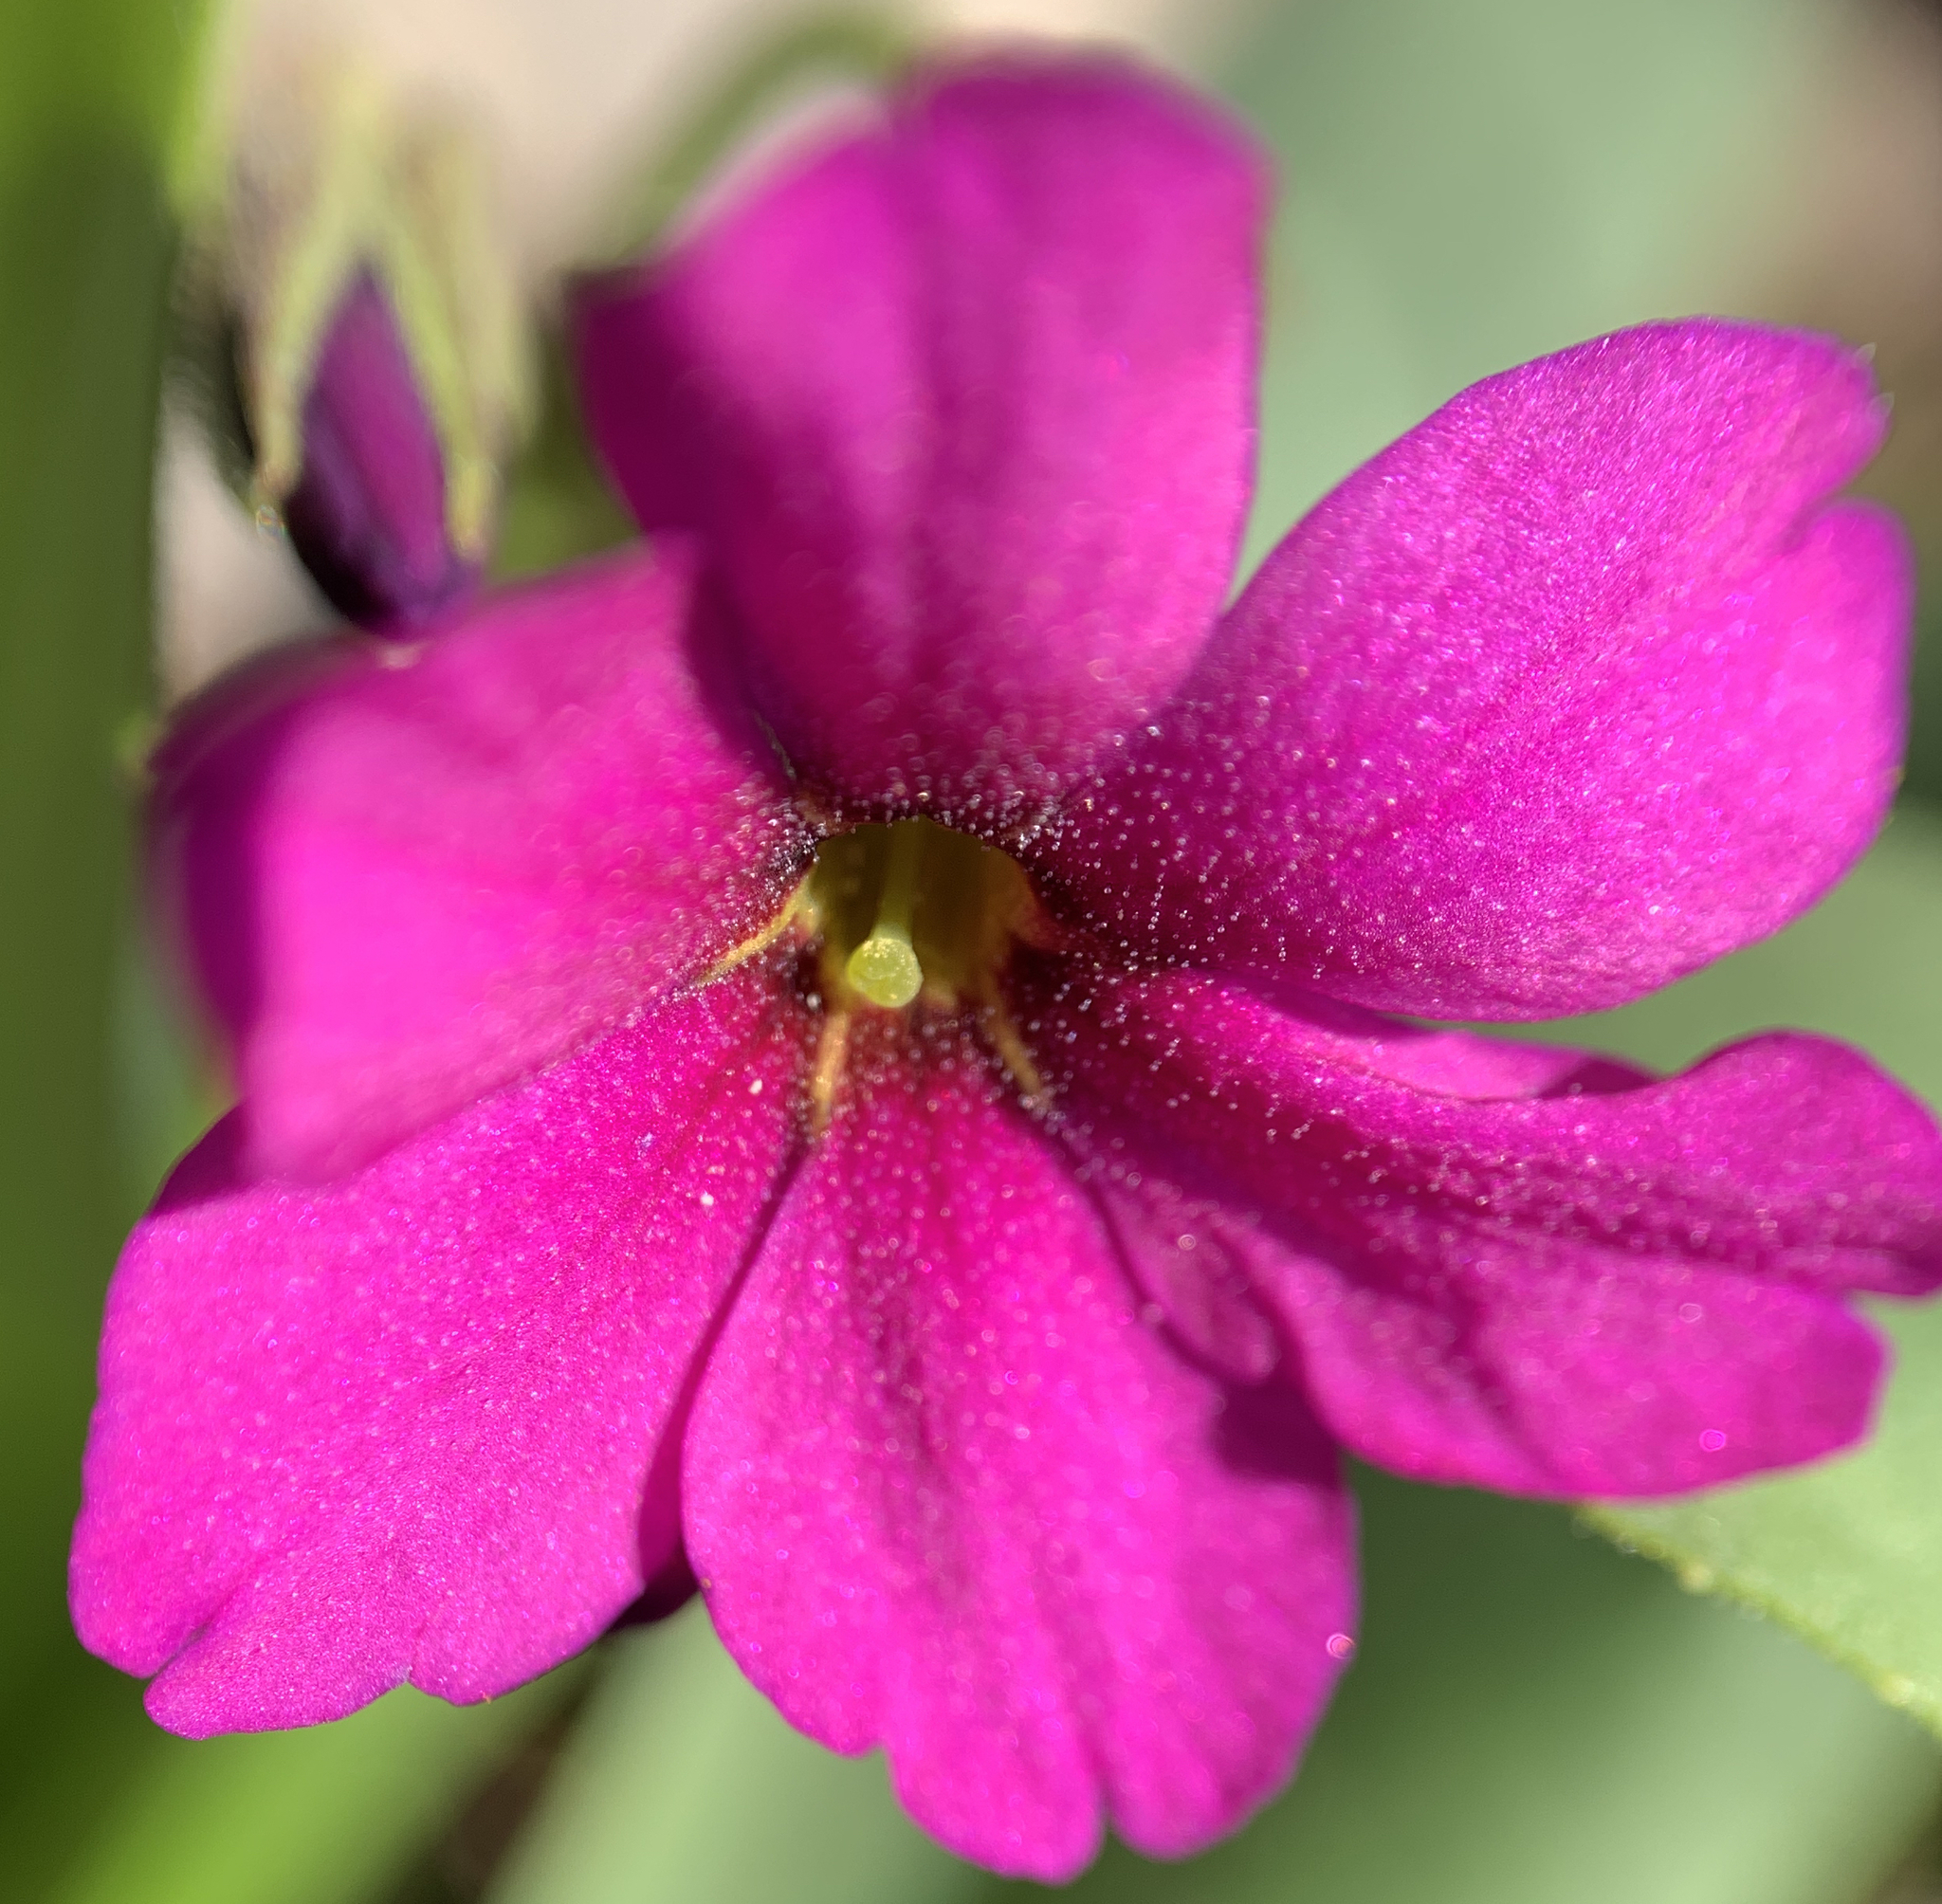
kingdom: Plantae
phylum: Tracheophyta
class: Magnoliopsida
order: Ericales
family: Primulaceae
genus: Primula
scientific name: Primula parryi
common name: Parry's primrose
